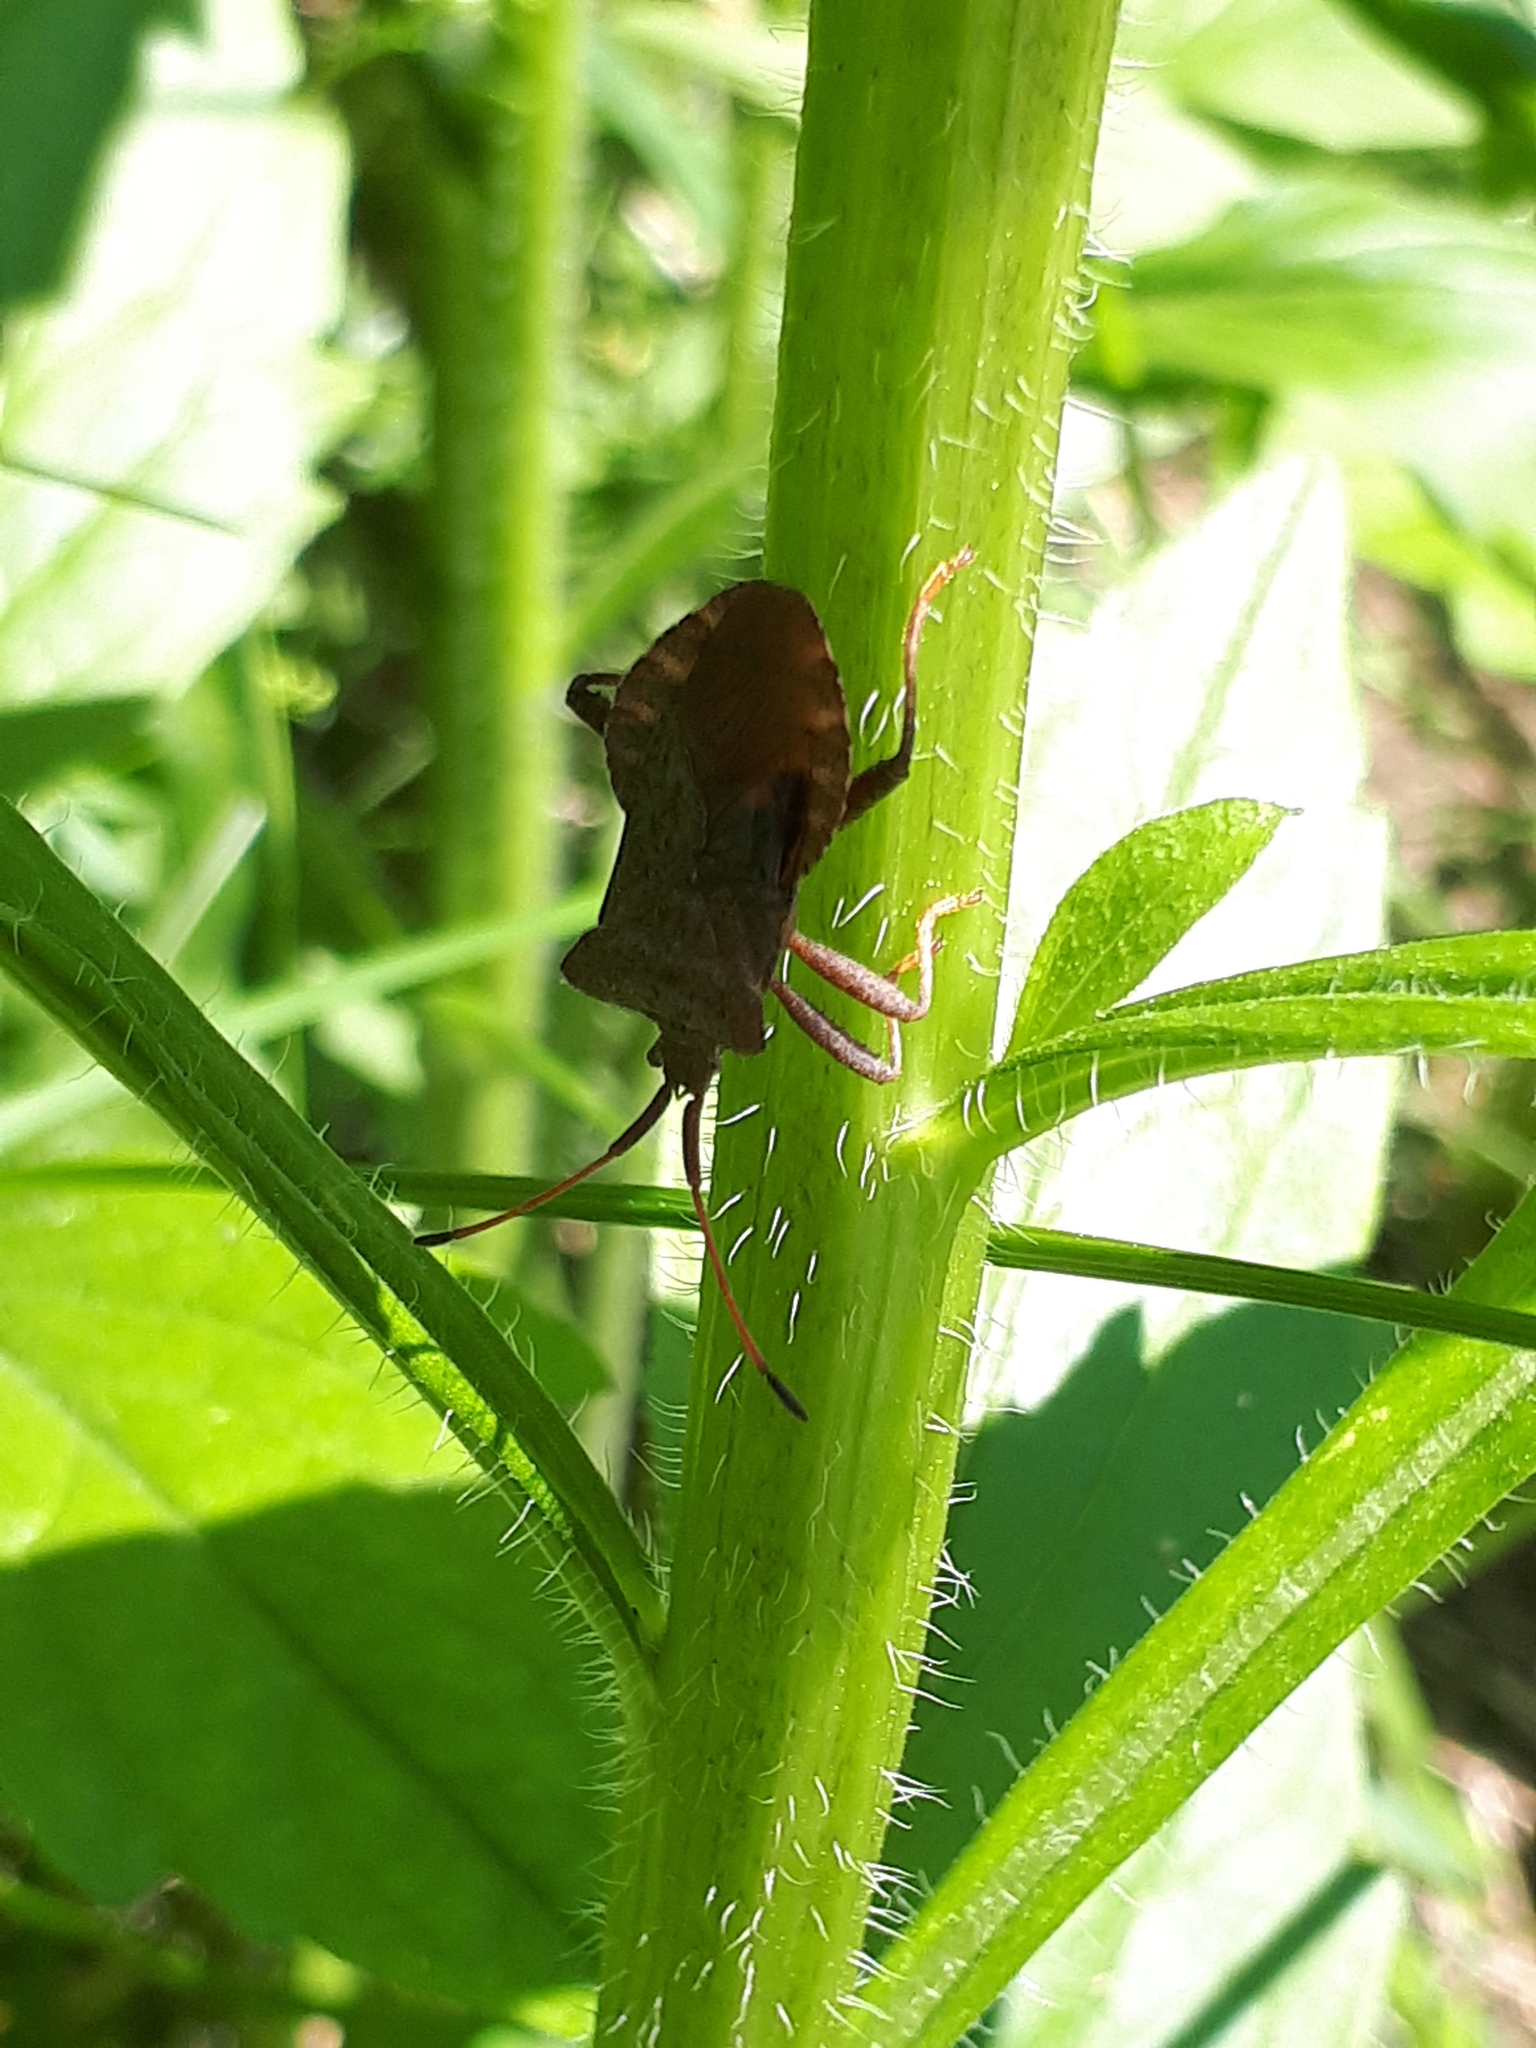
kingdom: Animalia
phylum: Arthropoda
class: Insecta
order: Hemiptera
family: Coreidae
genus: Coreus
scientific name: Coreus marginatus
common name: Dock bug
